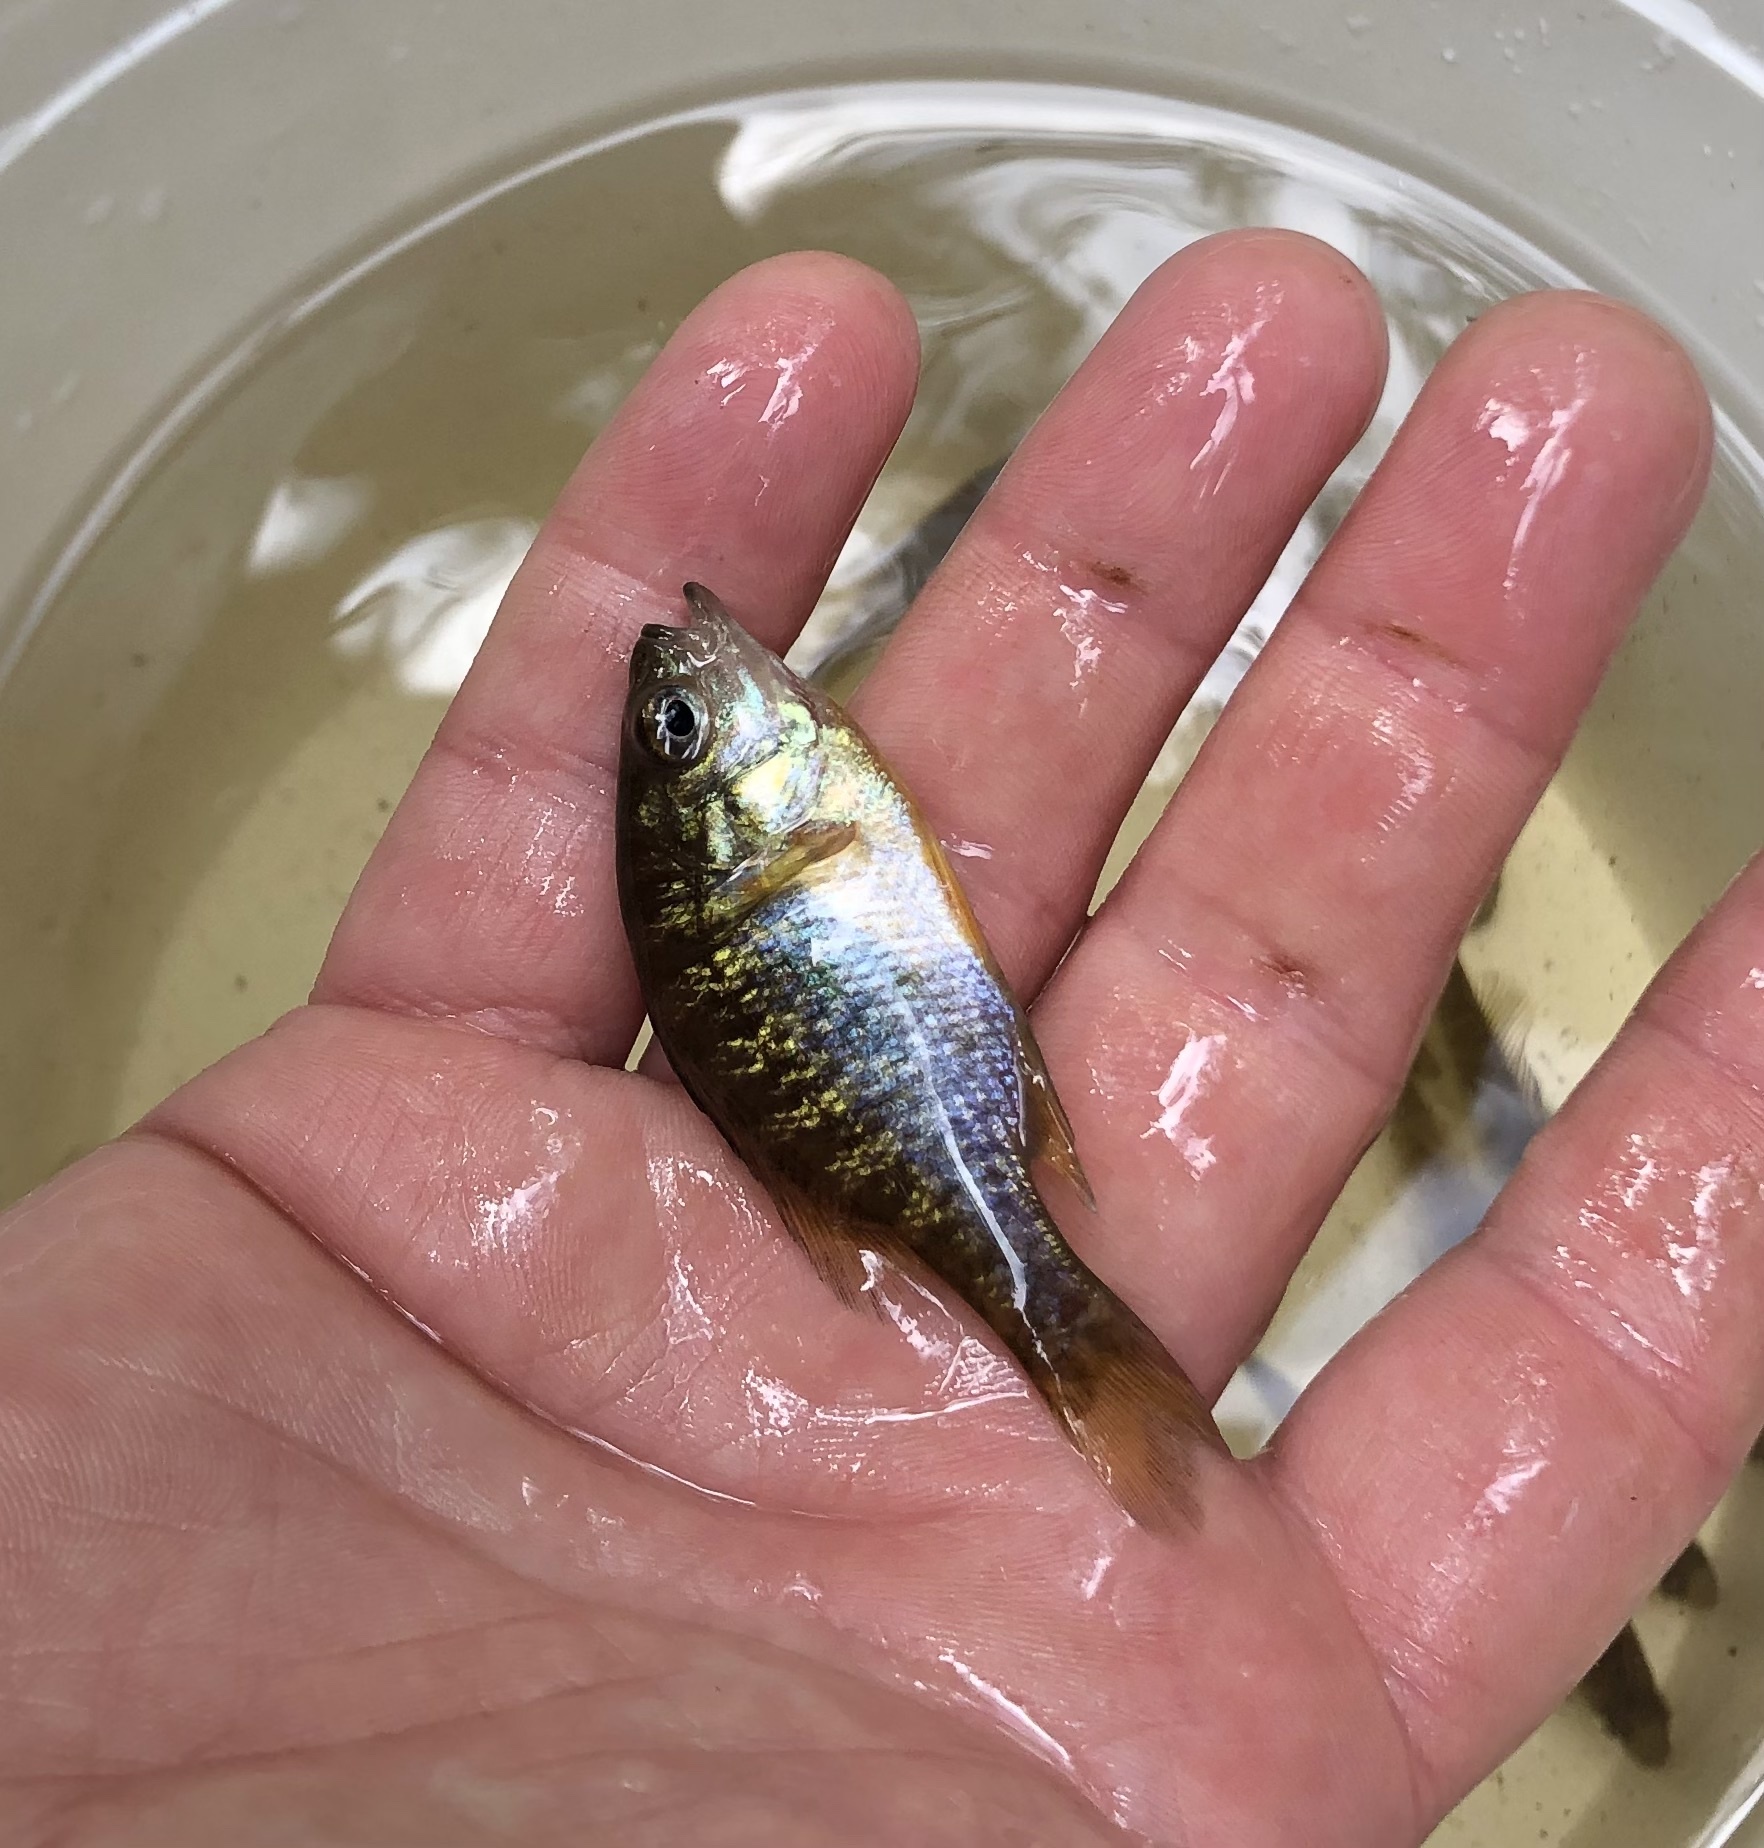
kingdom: Animalia
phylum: Chordata
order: Perciformes
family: Centrarchidae
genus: Lepomis
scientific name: Lepomis gibbosus
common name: Pumpkinseed
